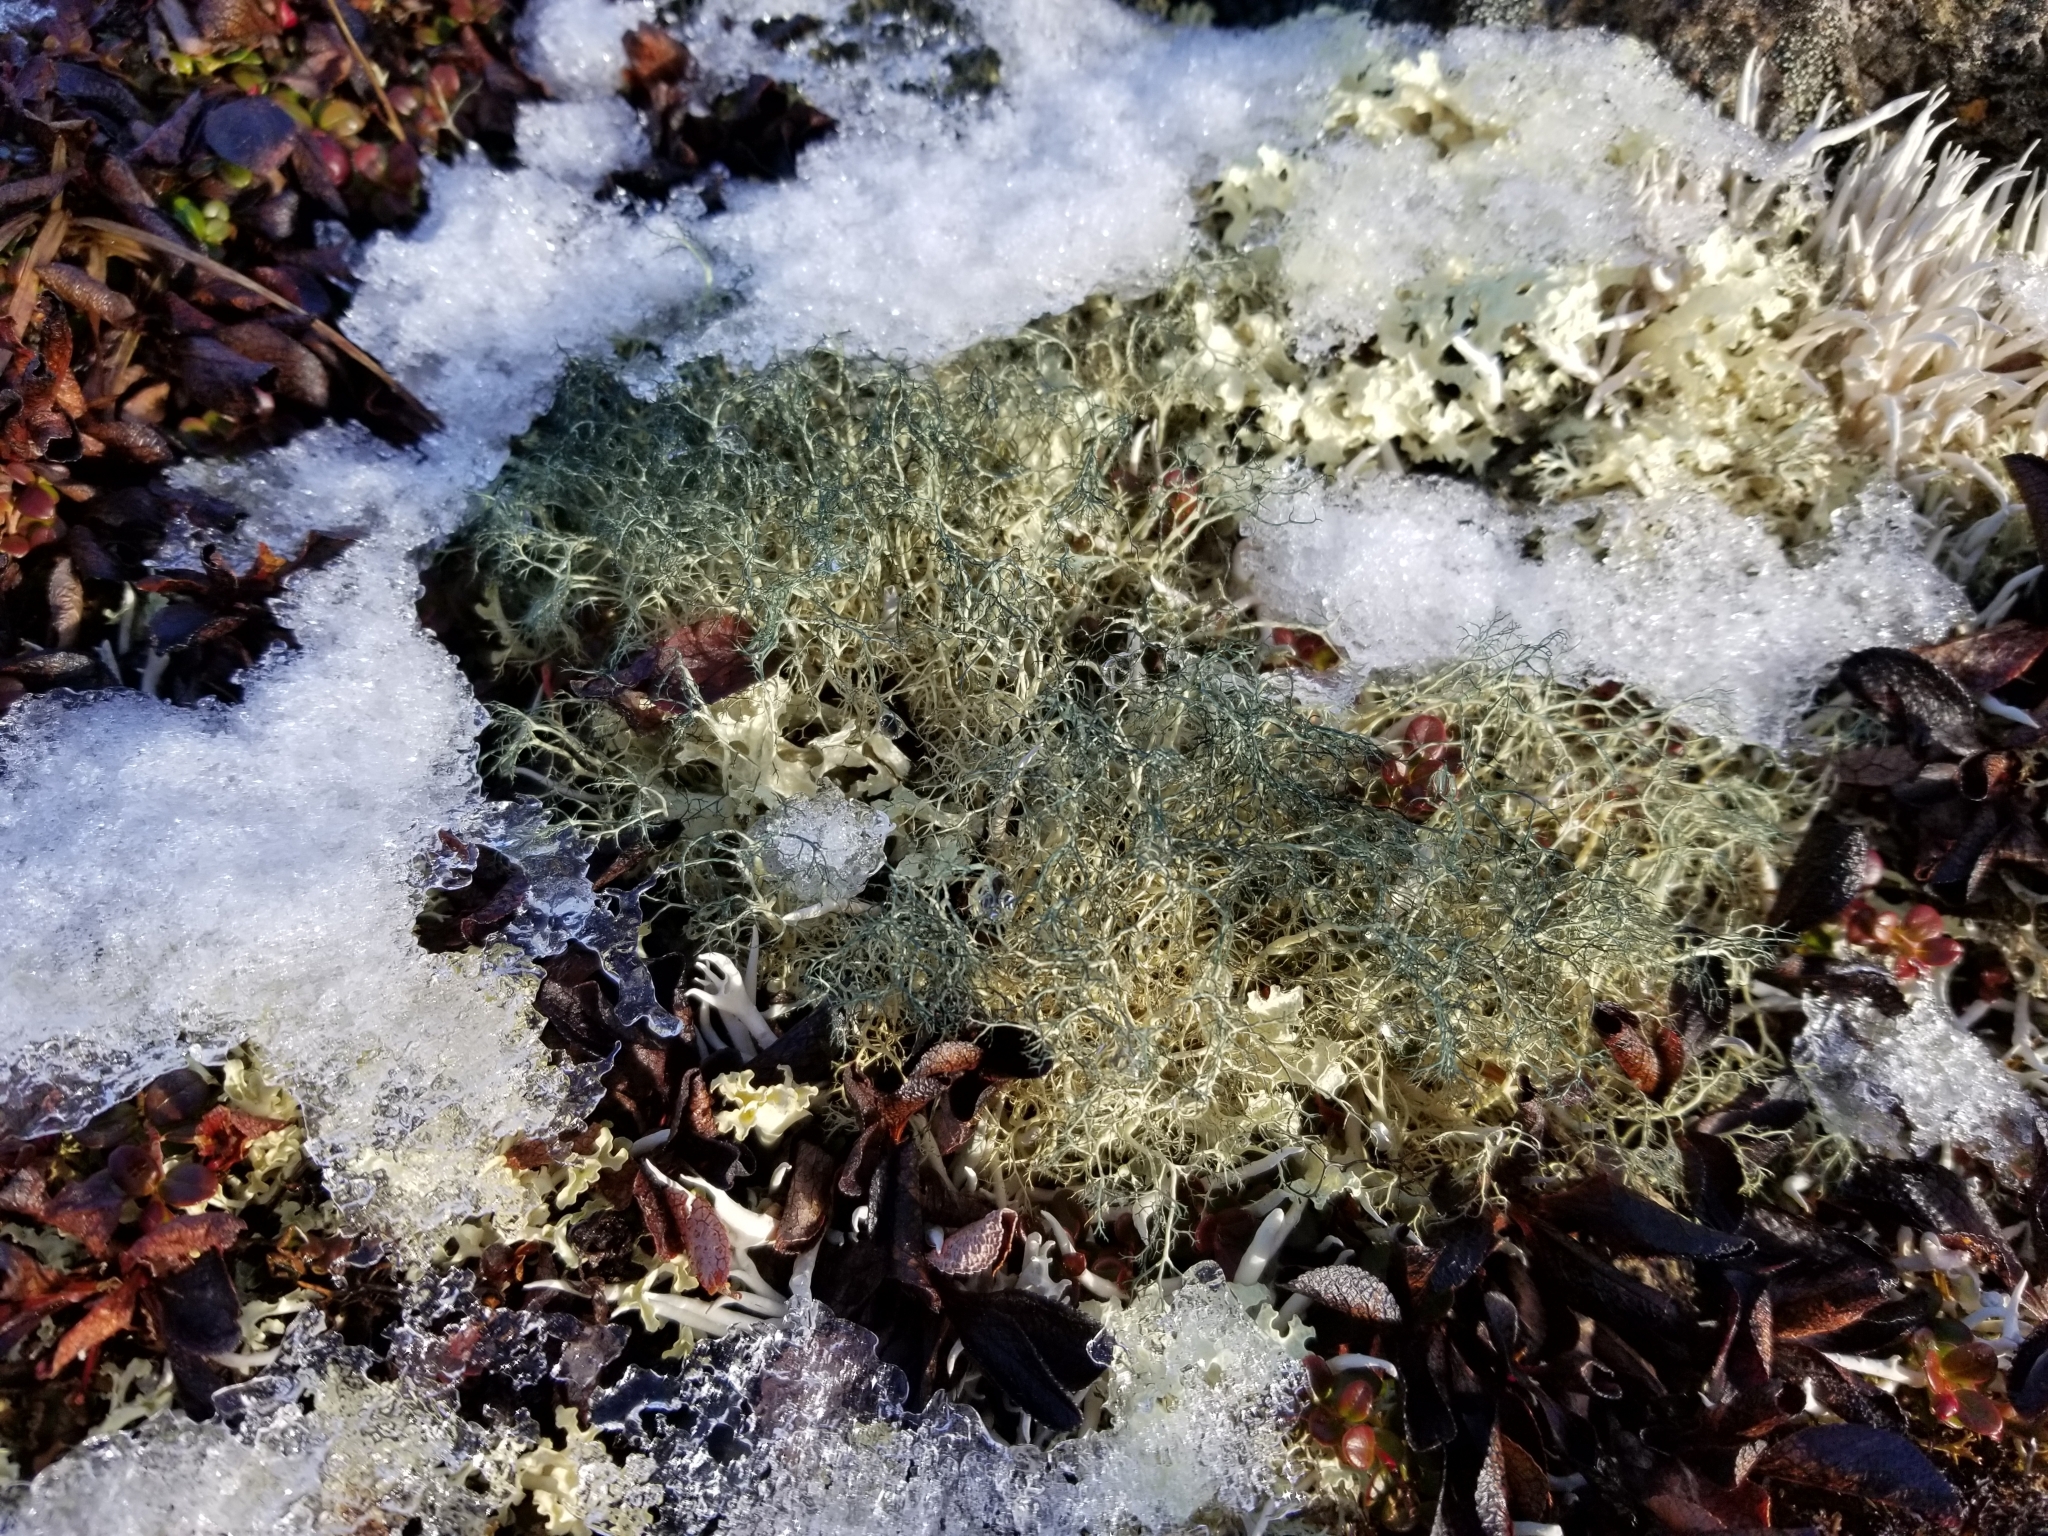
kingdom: Fungi
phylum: Ascomycota
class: Lecanoromycetes
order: Lecanorales
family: Parmeliaceae
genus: Alectoria
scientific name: Alectoria ochroleuca
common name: Alpine sulphur-tresses
